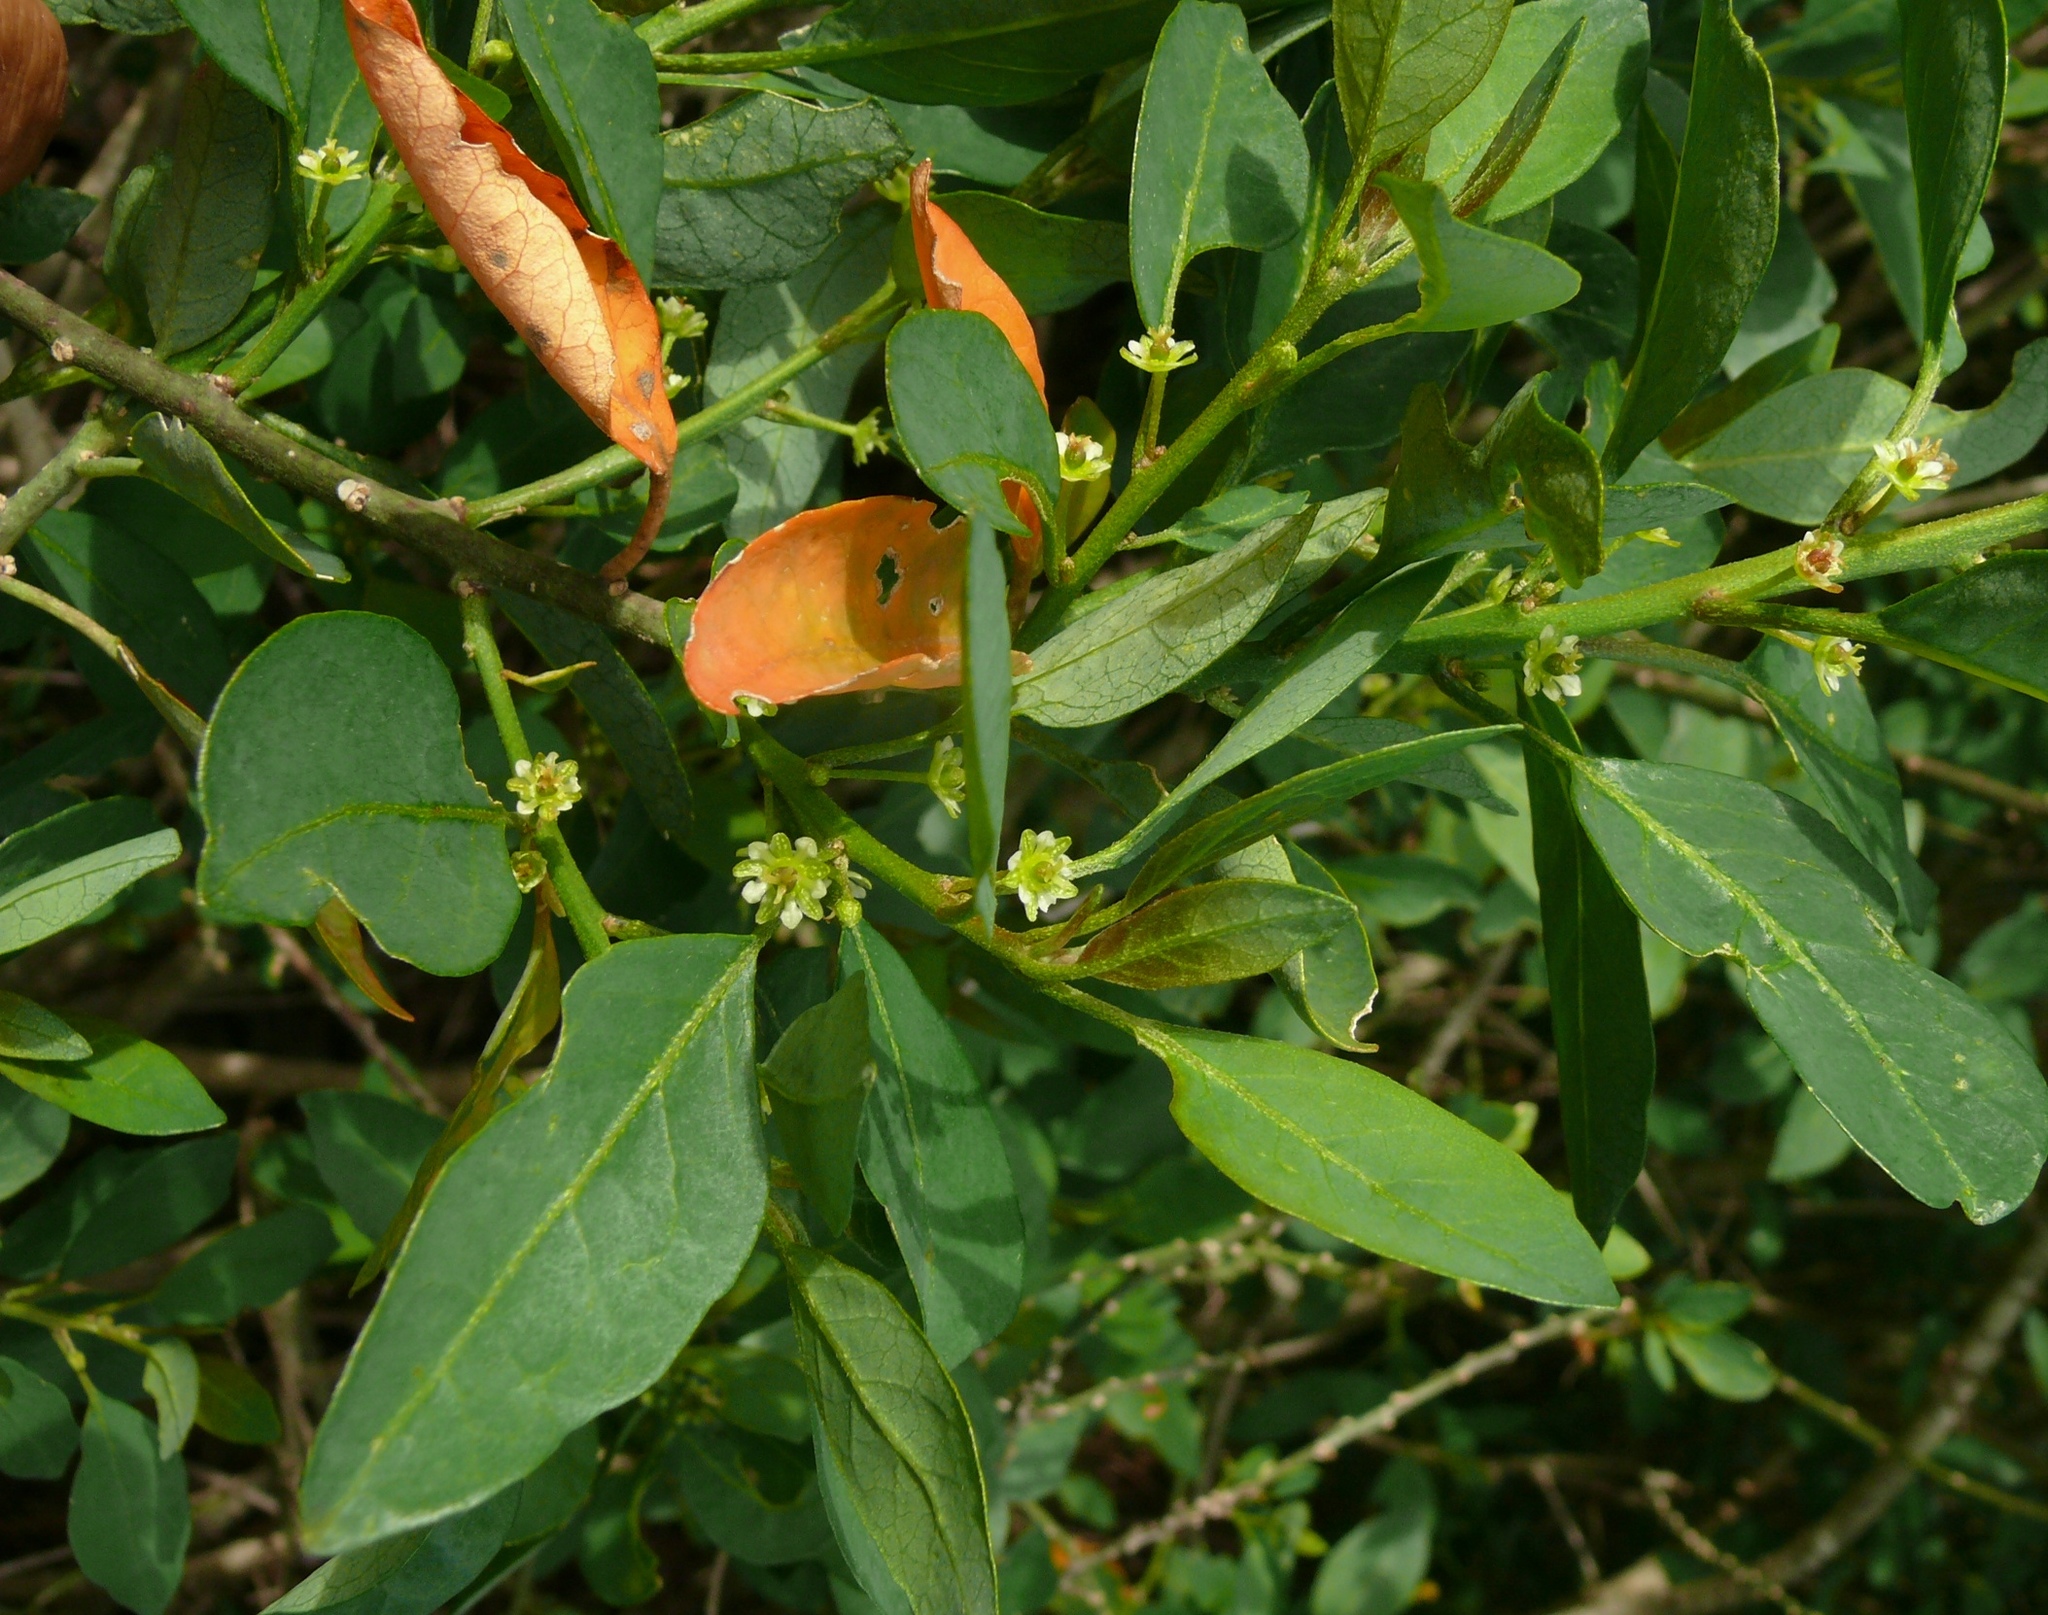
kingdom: Plantae
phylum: Tracheophyta
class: Magnoliopsida
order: Malpighiales
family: Peraceae
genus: Clutia
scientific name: Clutia pulchella
